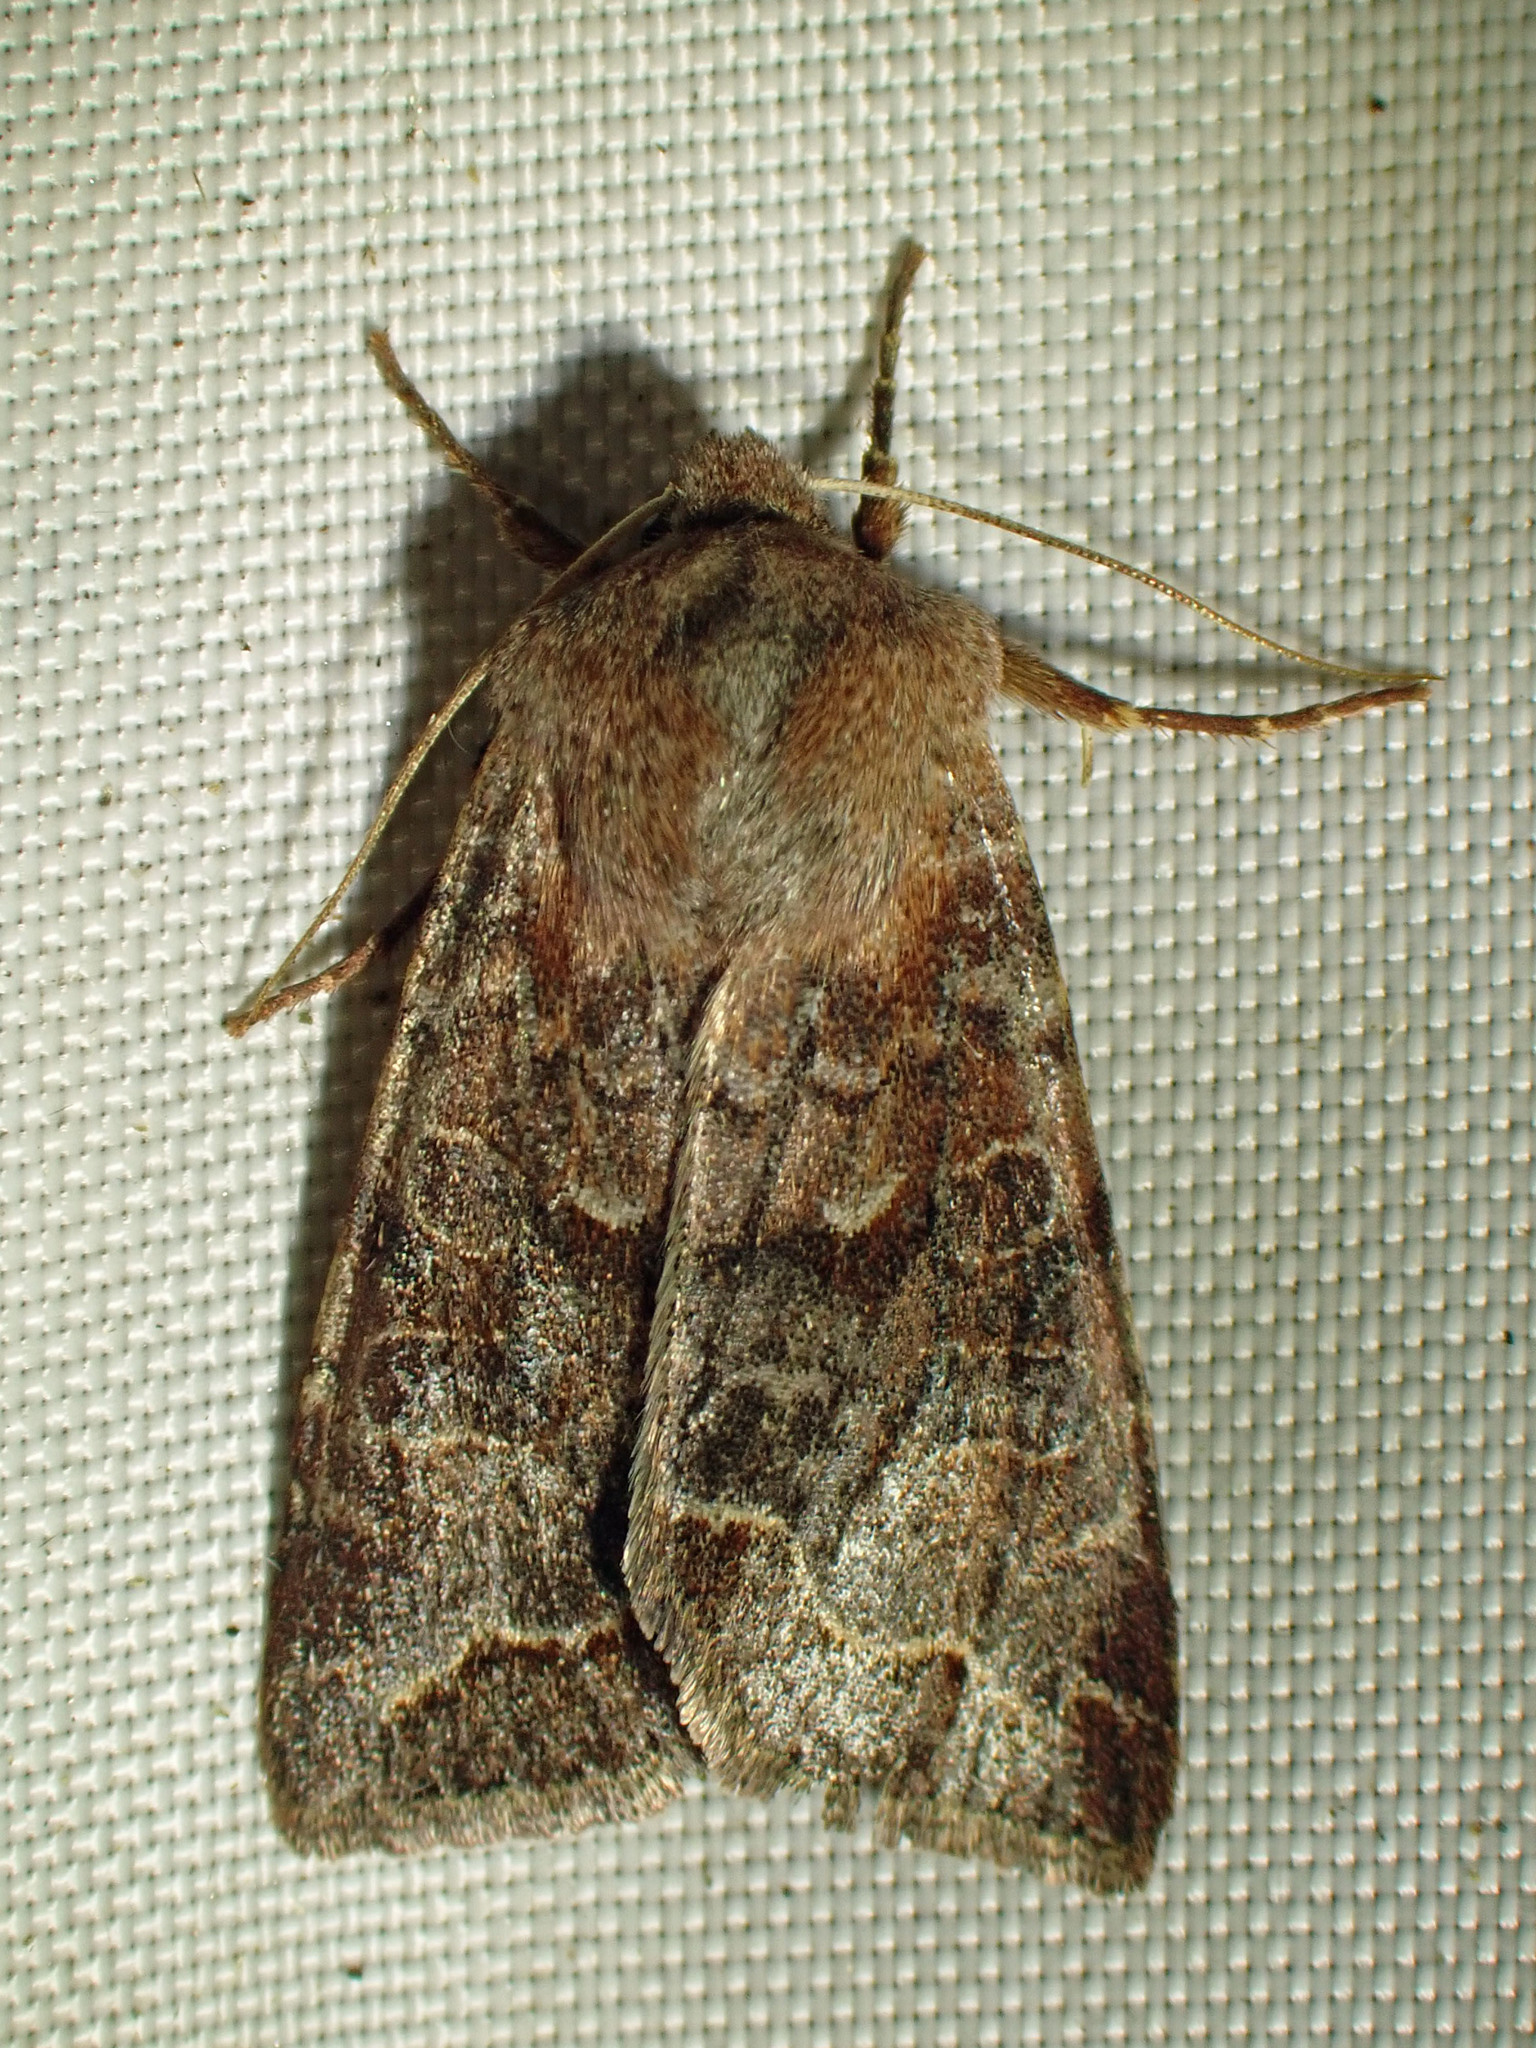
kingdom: Animalia
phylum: Arthropoda
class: Insecta
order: Lepidoptera
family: Noctuidae
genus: Orthosia
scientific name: Orthosia revicta
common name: Rusty whitesided caterpillar
